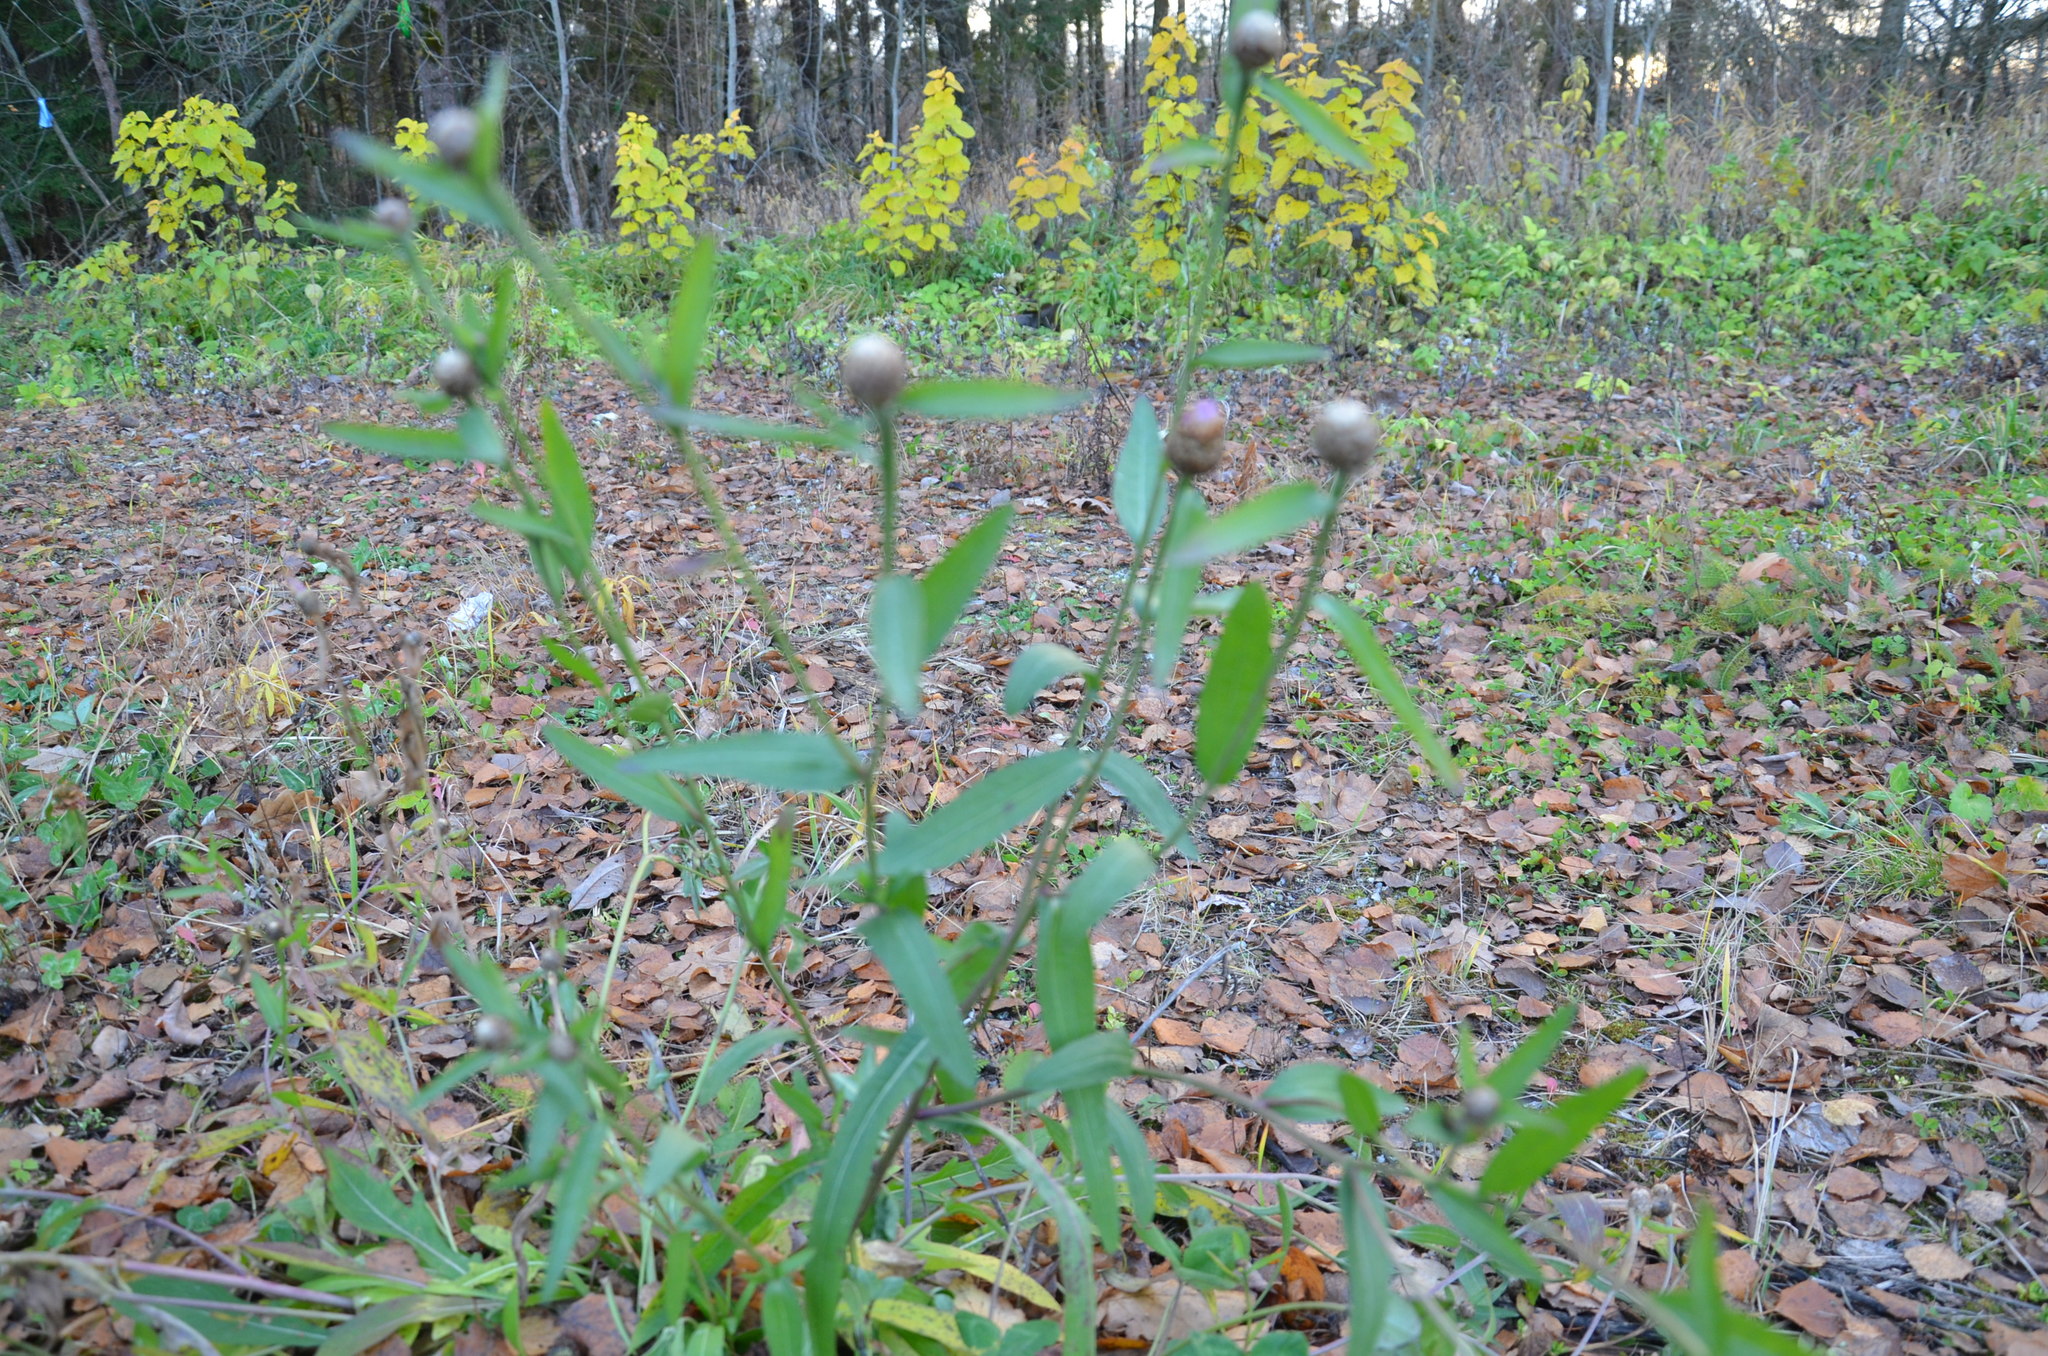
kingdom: Plantae
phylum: Tracheophyta
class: Magnoliopsida
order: Asterales
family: Asteraceae
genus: Centaurea
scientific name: Centaurea jacea
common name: Brown knapweed
